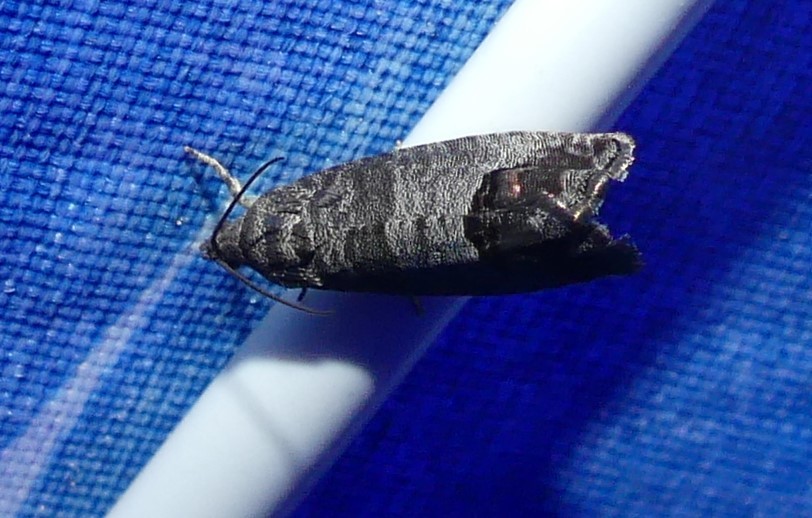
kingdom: Animalia
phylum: Arthropoda
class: Insecta
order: Lepidoptera
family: Tortricidae
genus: Cydia
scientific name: Cydia pomonella
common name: Codling moth
